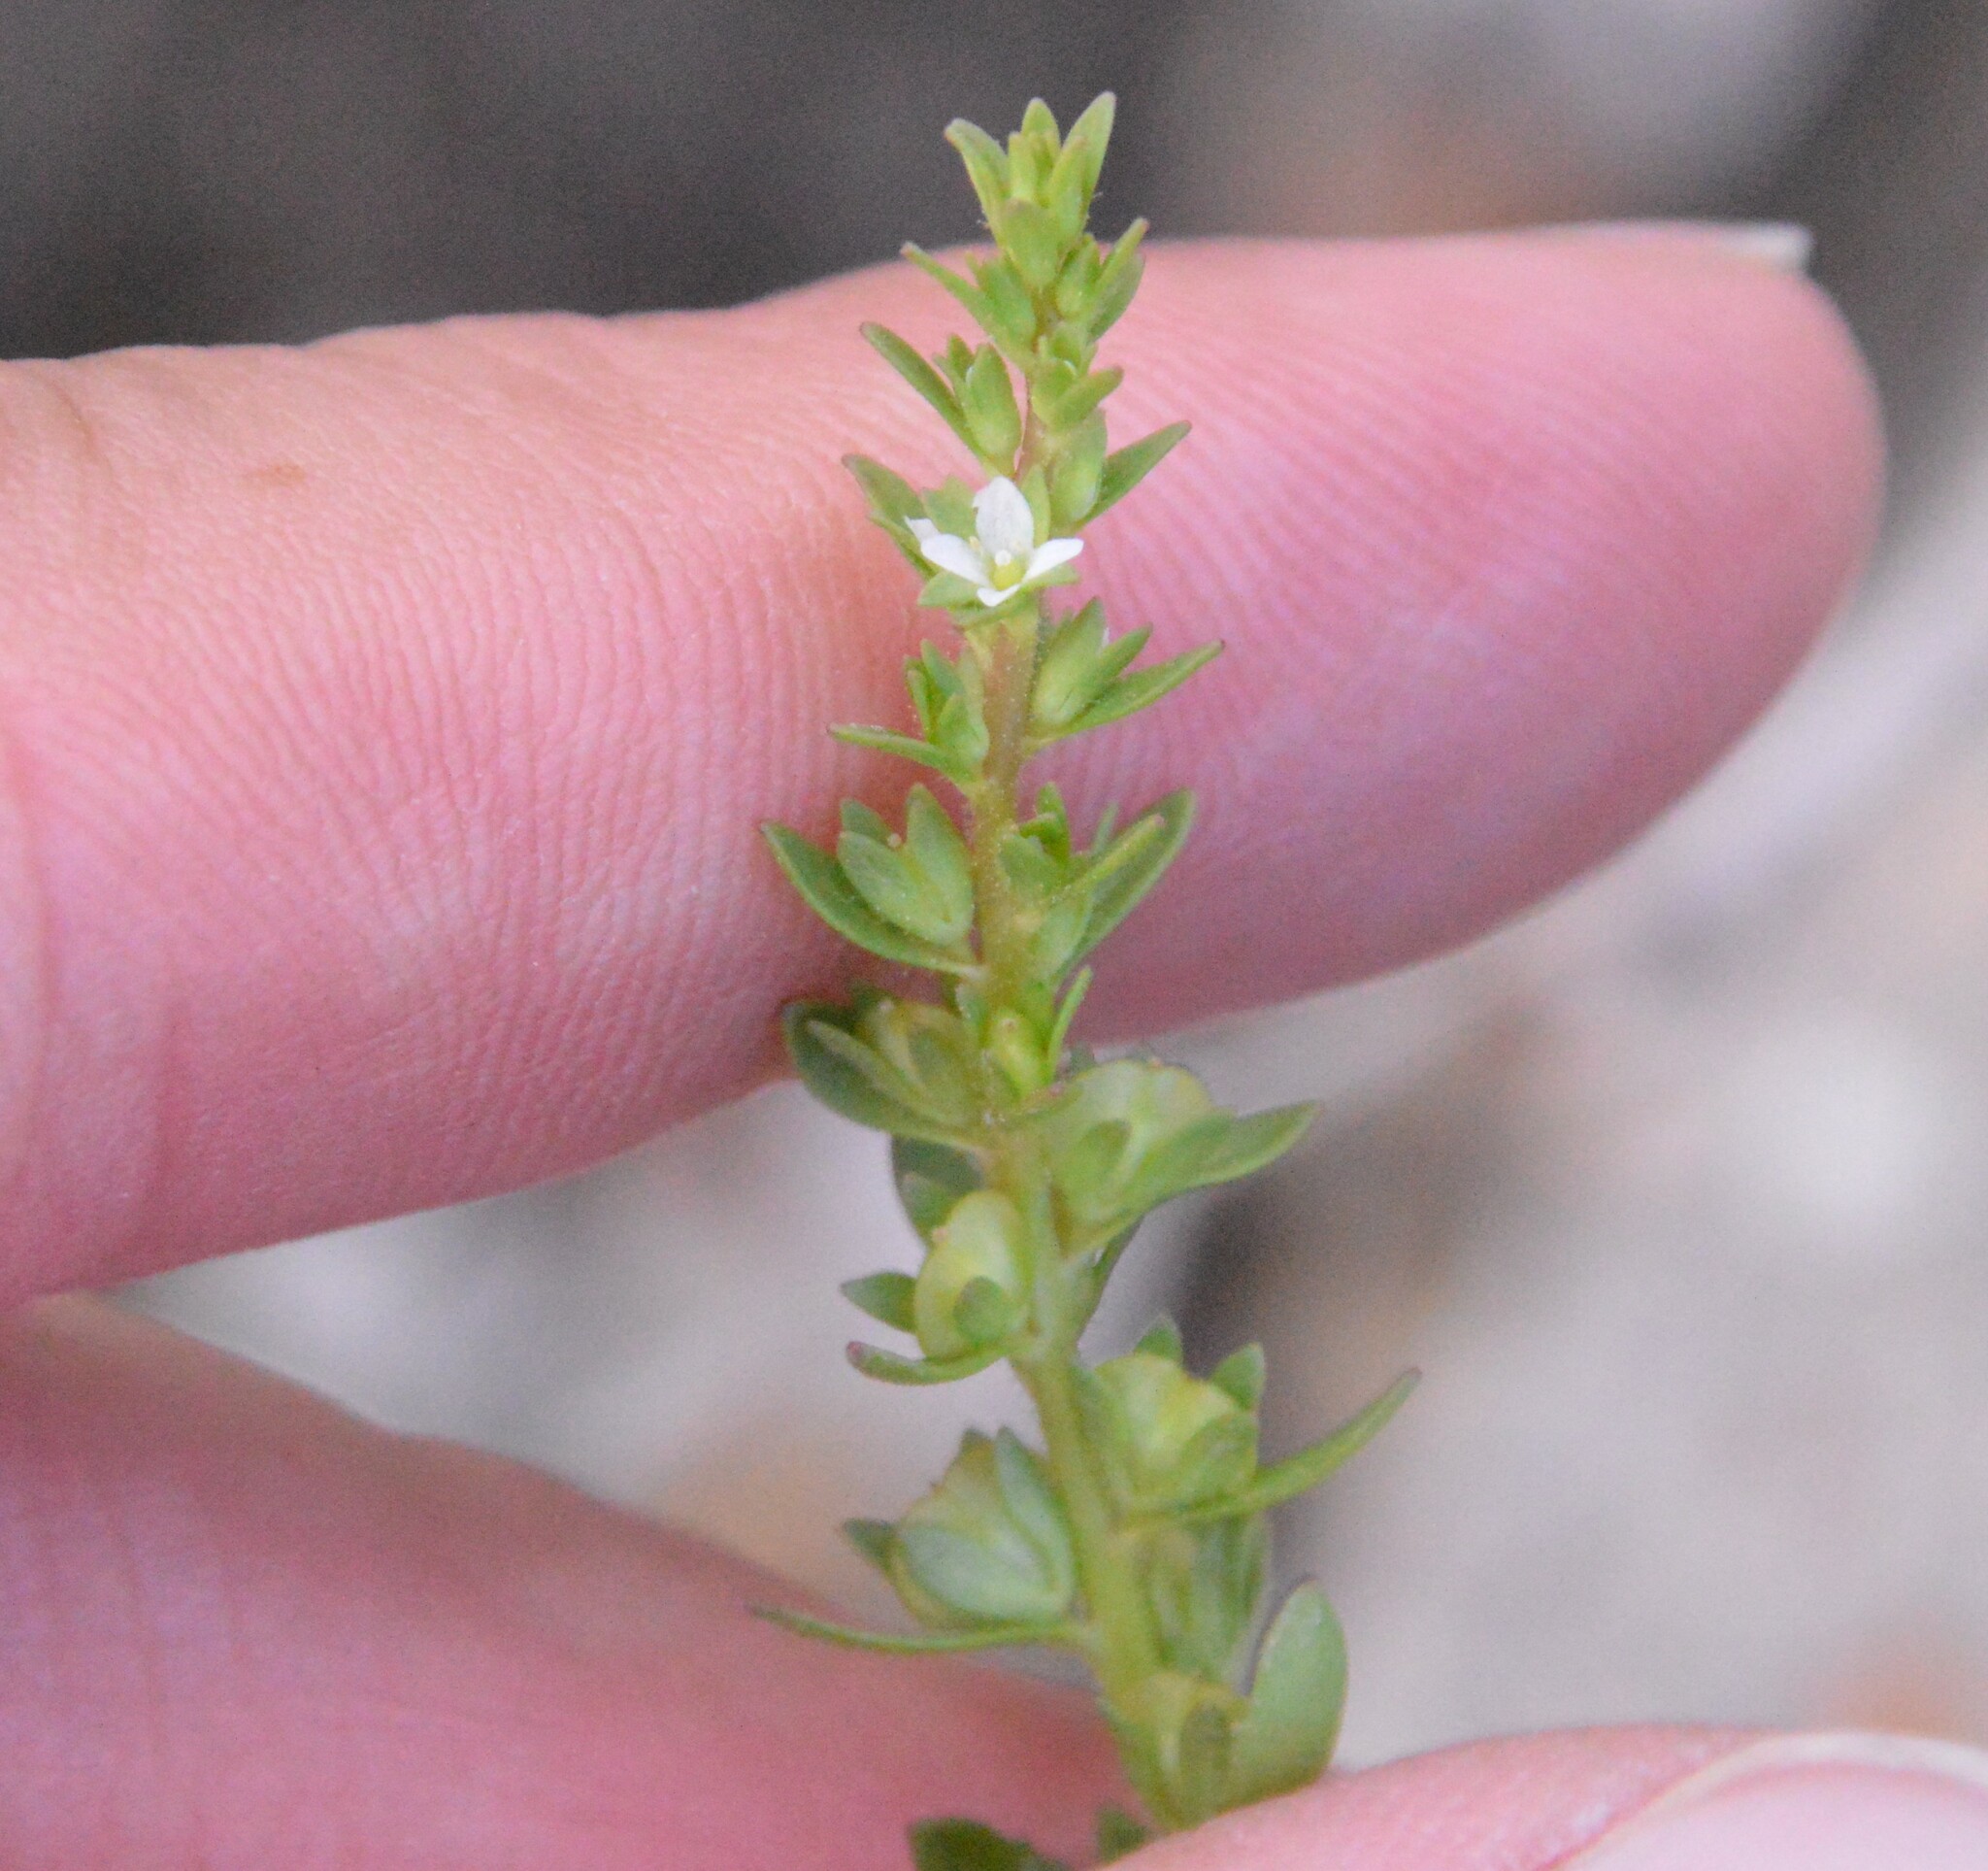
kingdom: Plantae
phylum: Tracheophyta
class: Magnoliopsida
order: Lamiales
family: Plantaginaceae
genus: Veronica
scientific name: Veronica peregrina
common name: Neckweed
